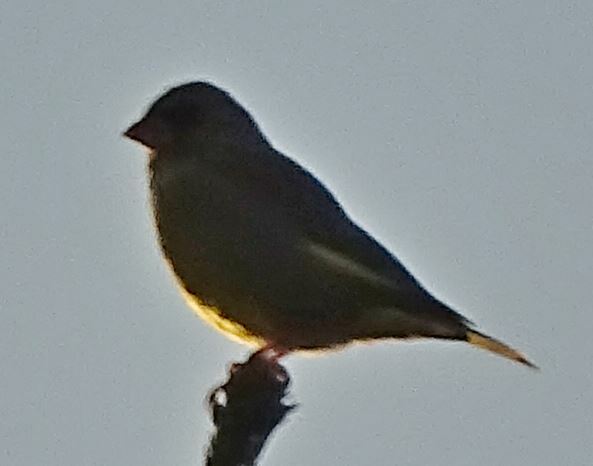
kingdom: Plantae
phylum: Tracheophyta
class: Liliopsida
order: Poales
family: Poaceae
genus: Chloris
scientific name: Chloris chloris
